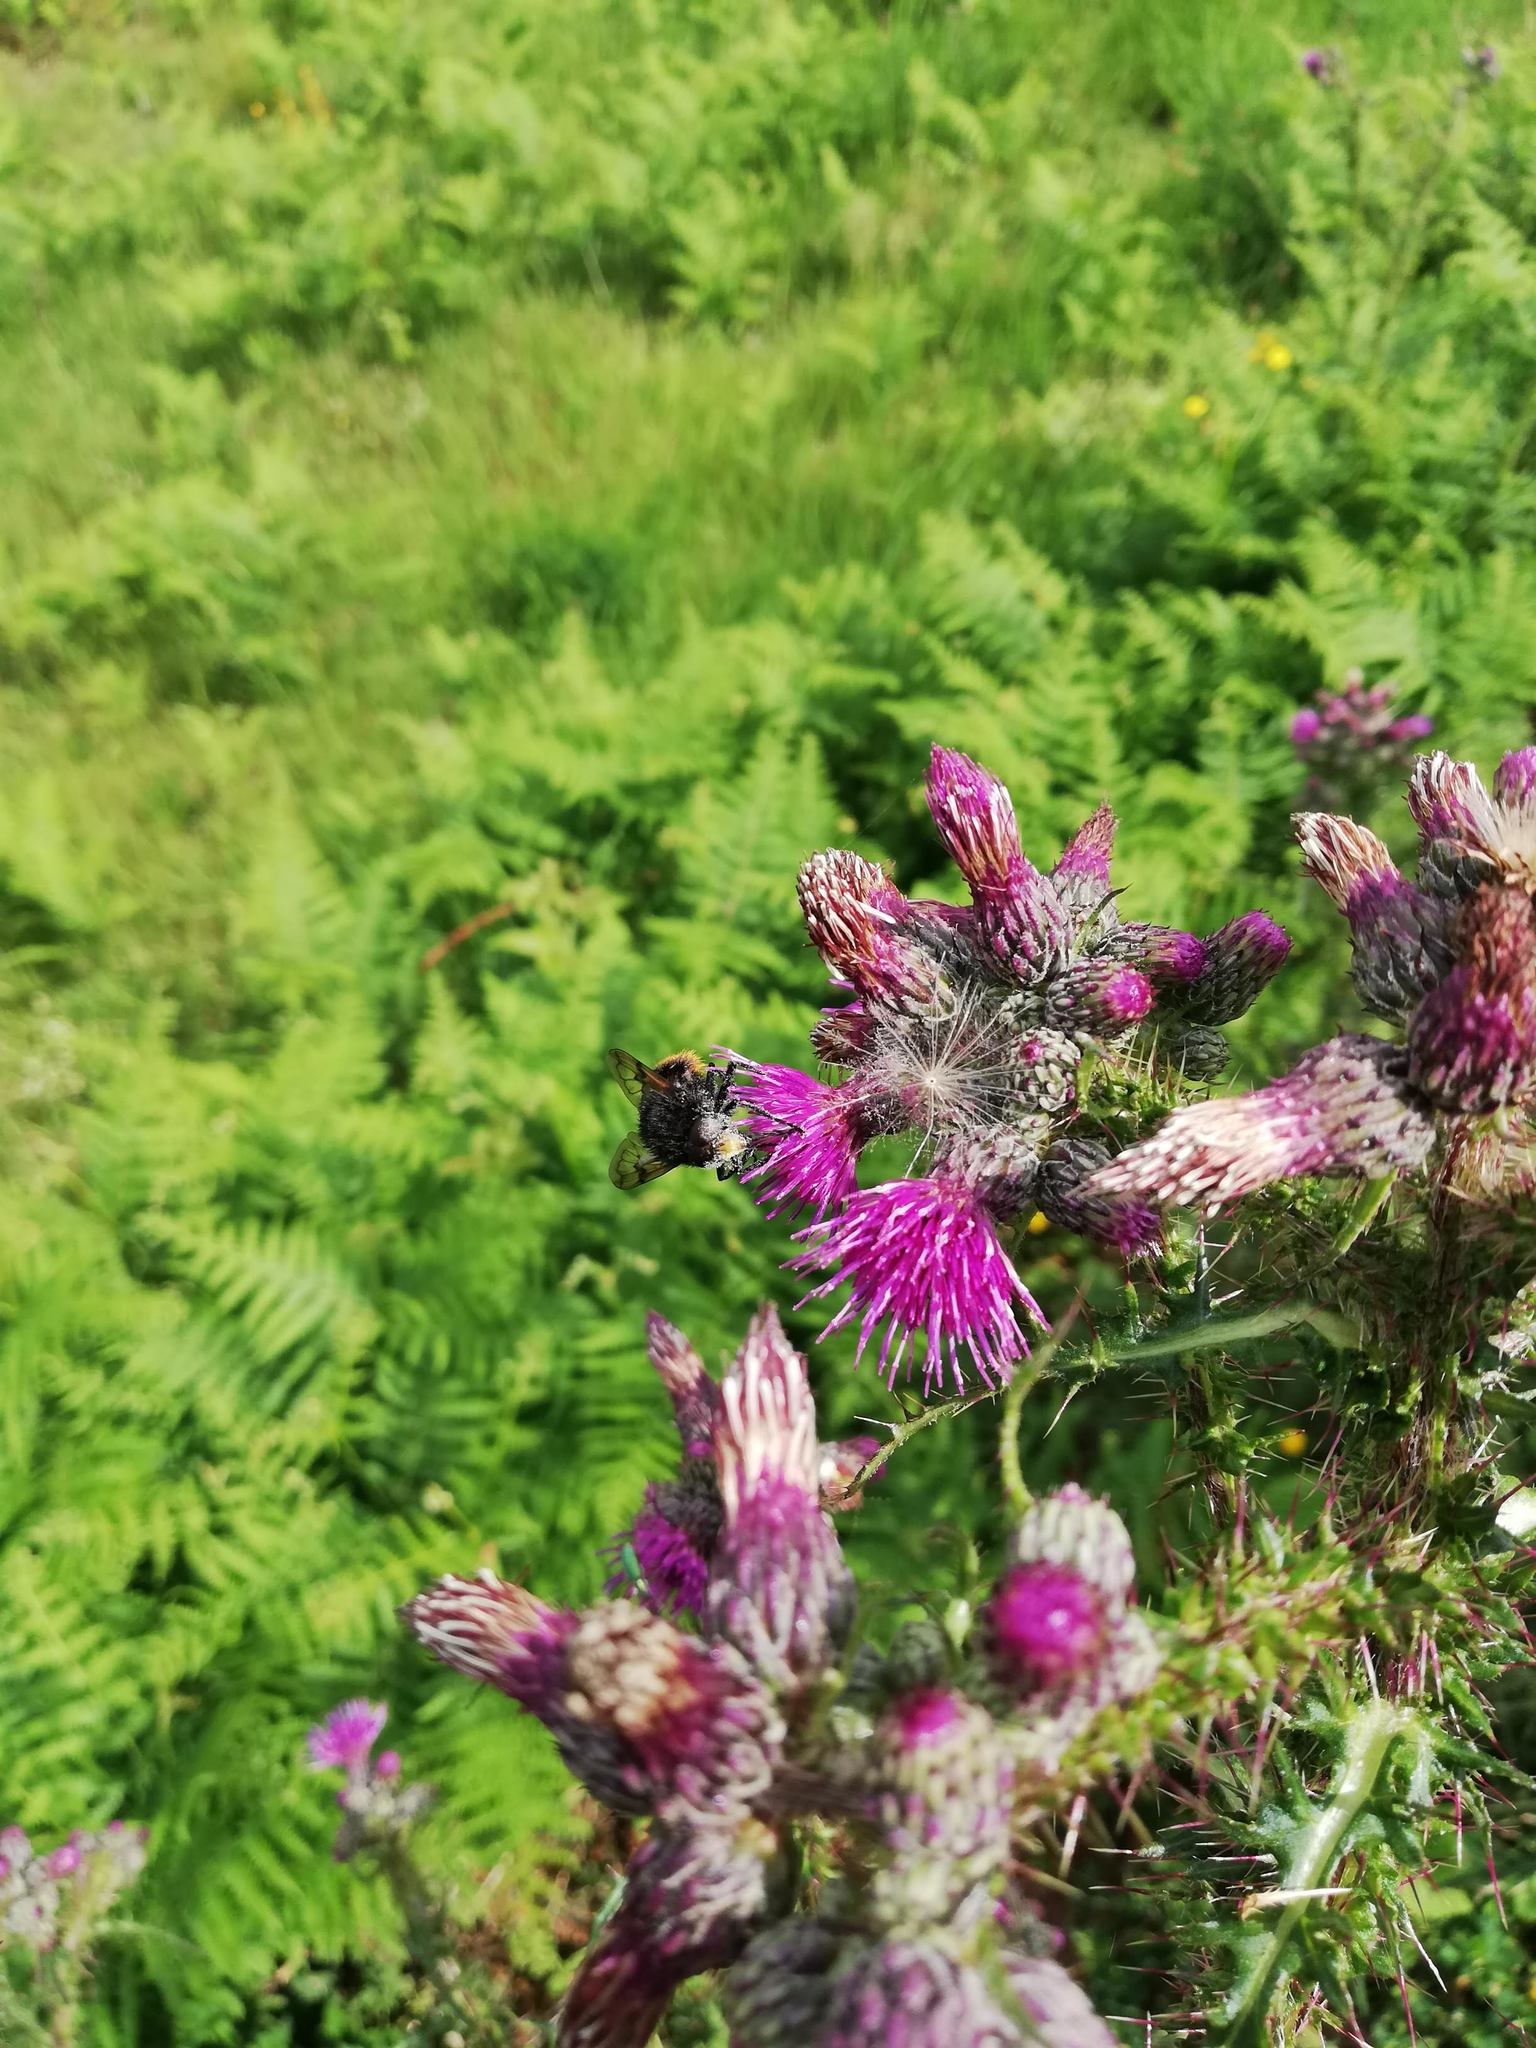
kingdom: Animalia
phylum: Arthropoda
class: Insecta
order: Diptera
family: Syrphidae
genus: Volucella
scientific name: Volucella bombylans
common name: Bumble bee hover fly
